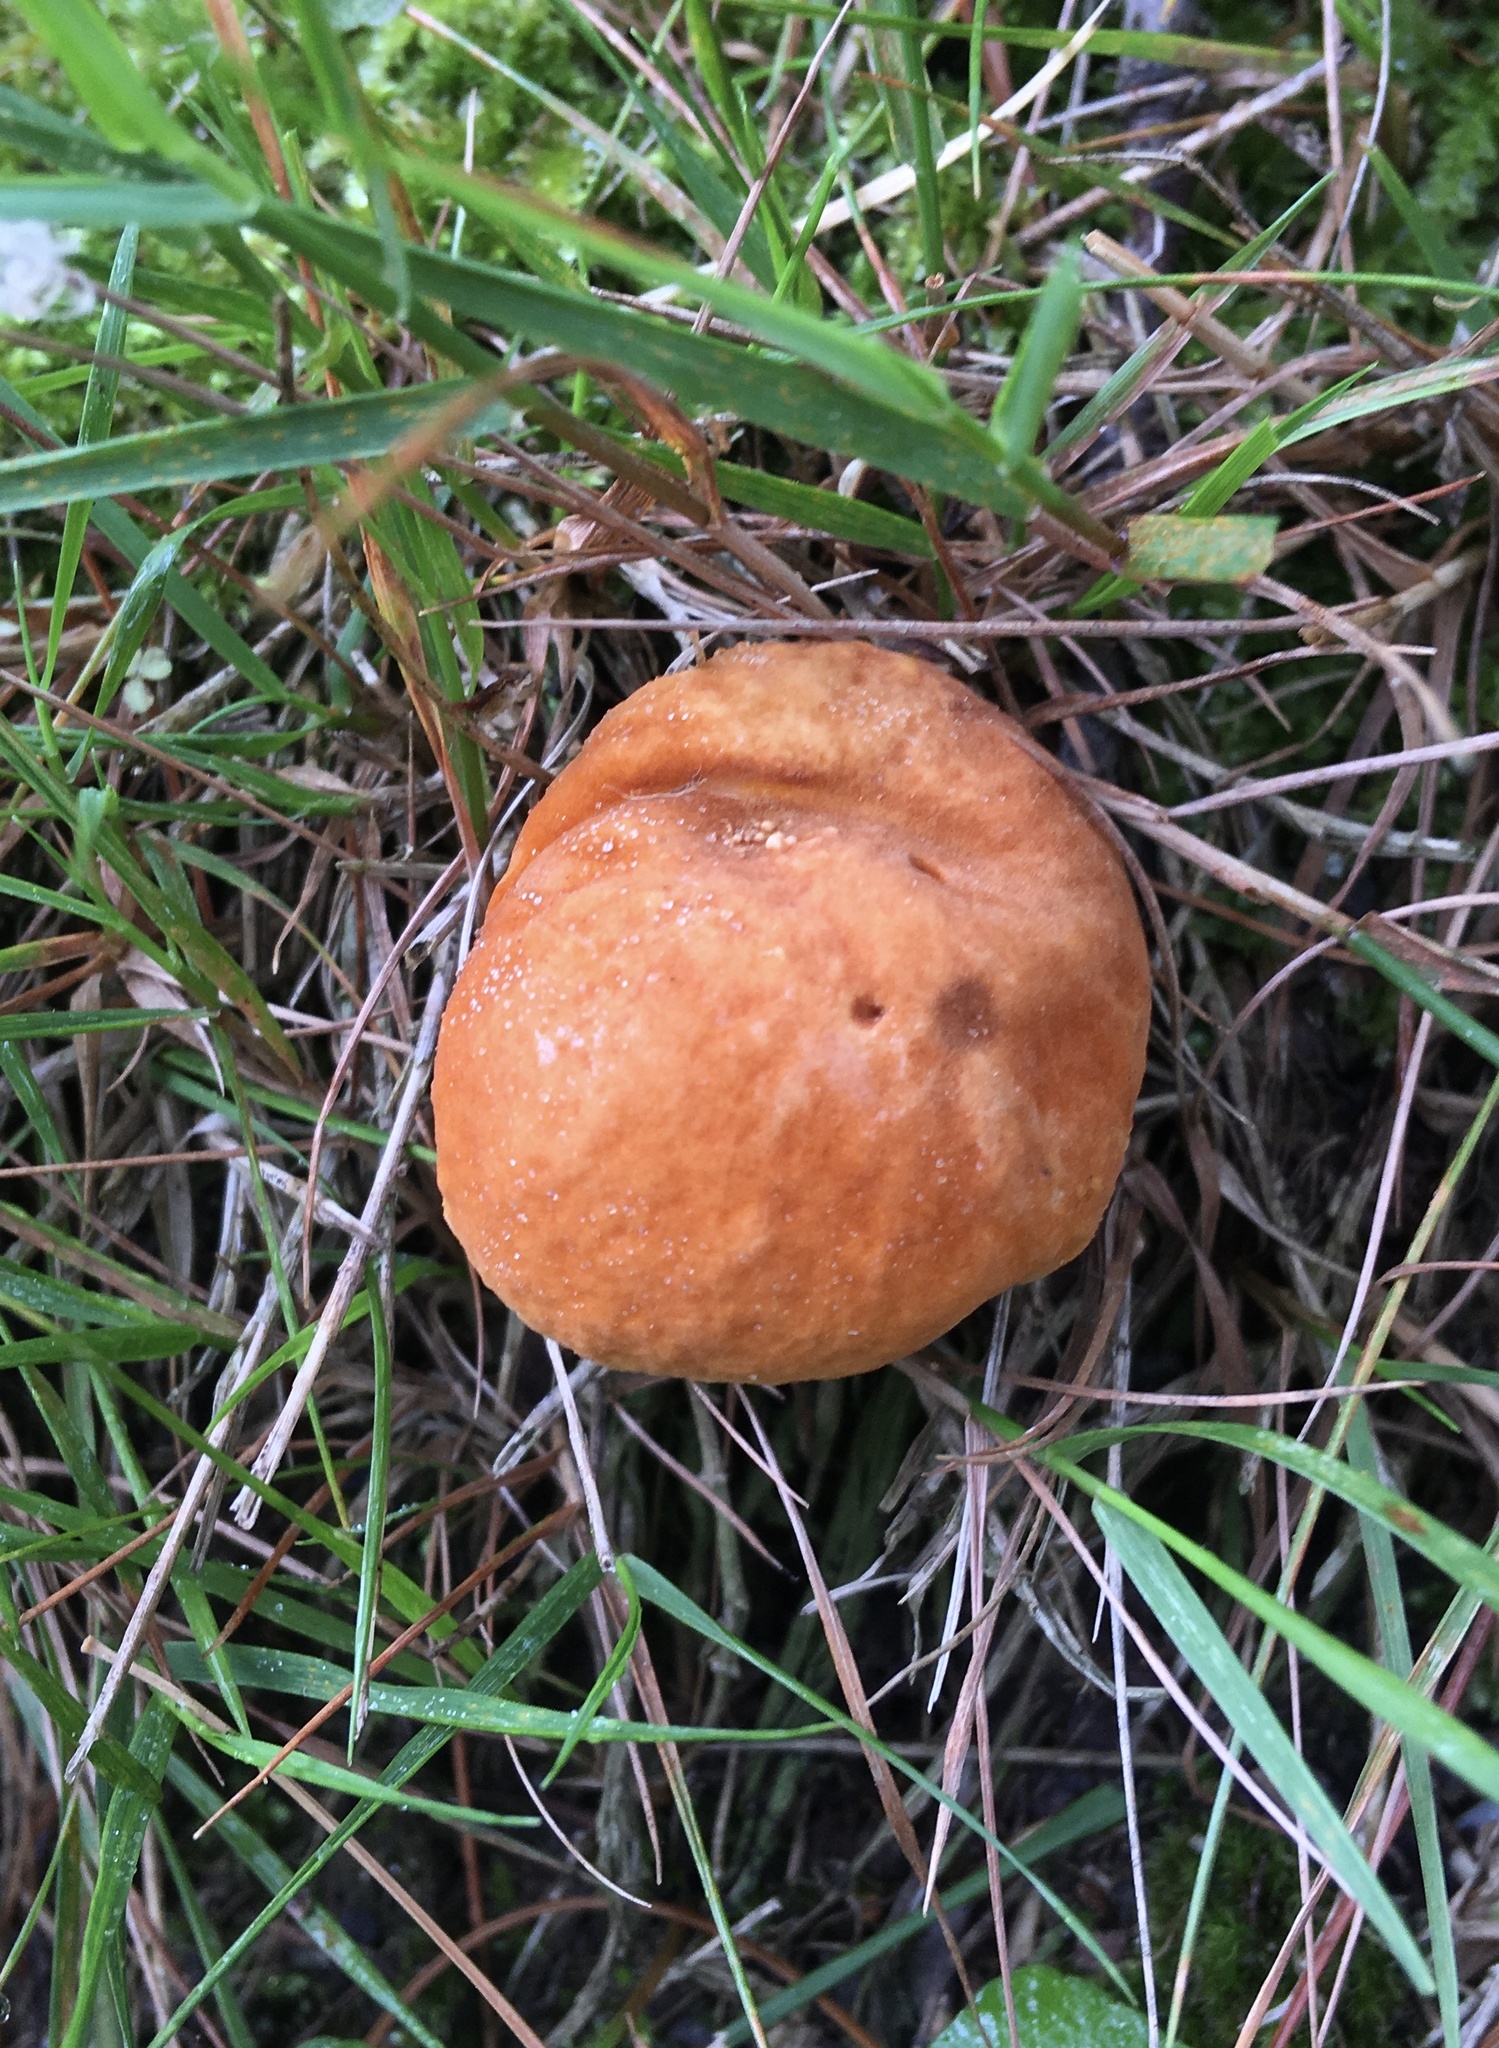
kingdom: Fungi
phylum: Basidiomycota
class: Agaricomycetes
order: Boletales
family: Gyroporaceae
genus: Gyroporus
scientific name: Gyroporus castaneus
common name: Chestnut bolete
